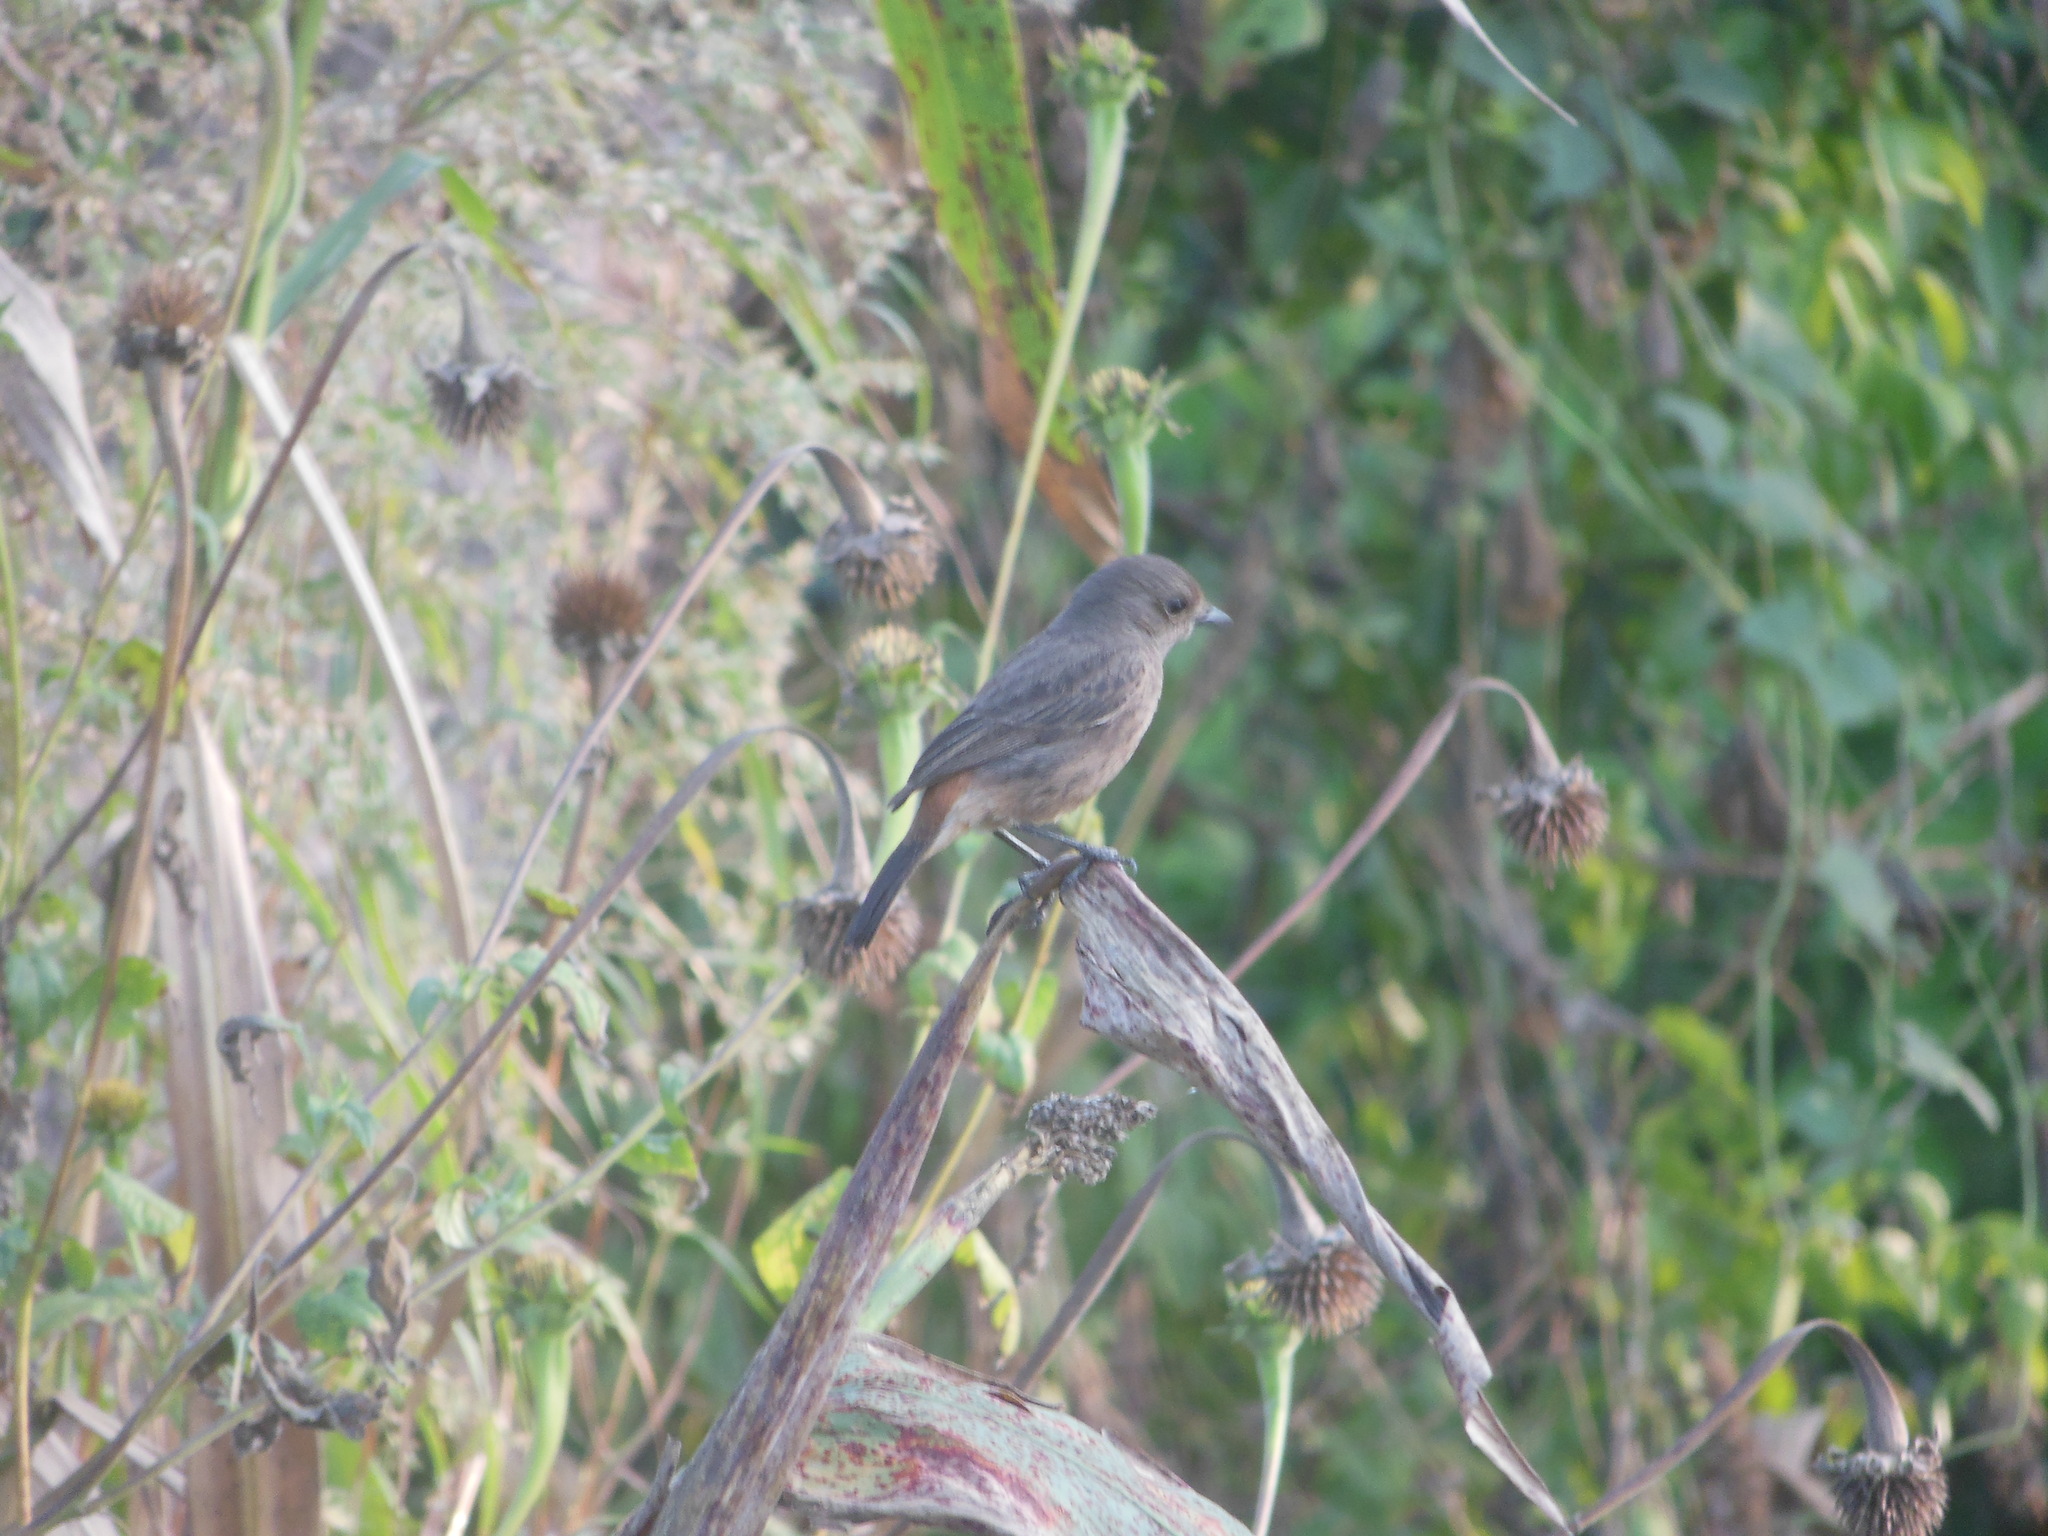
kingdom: Animalia
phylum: Chordata
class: Aves
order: Passeriformes
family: Muscicapidae
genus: Saxicola
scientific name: Saxicola caprata
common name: Pied bush chat
